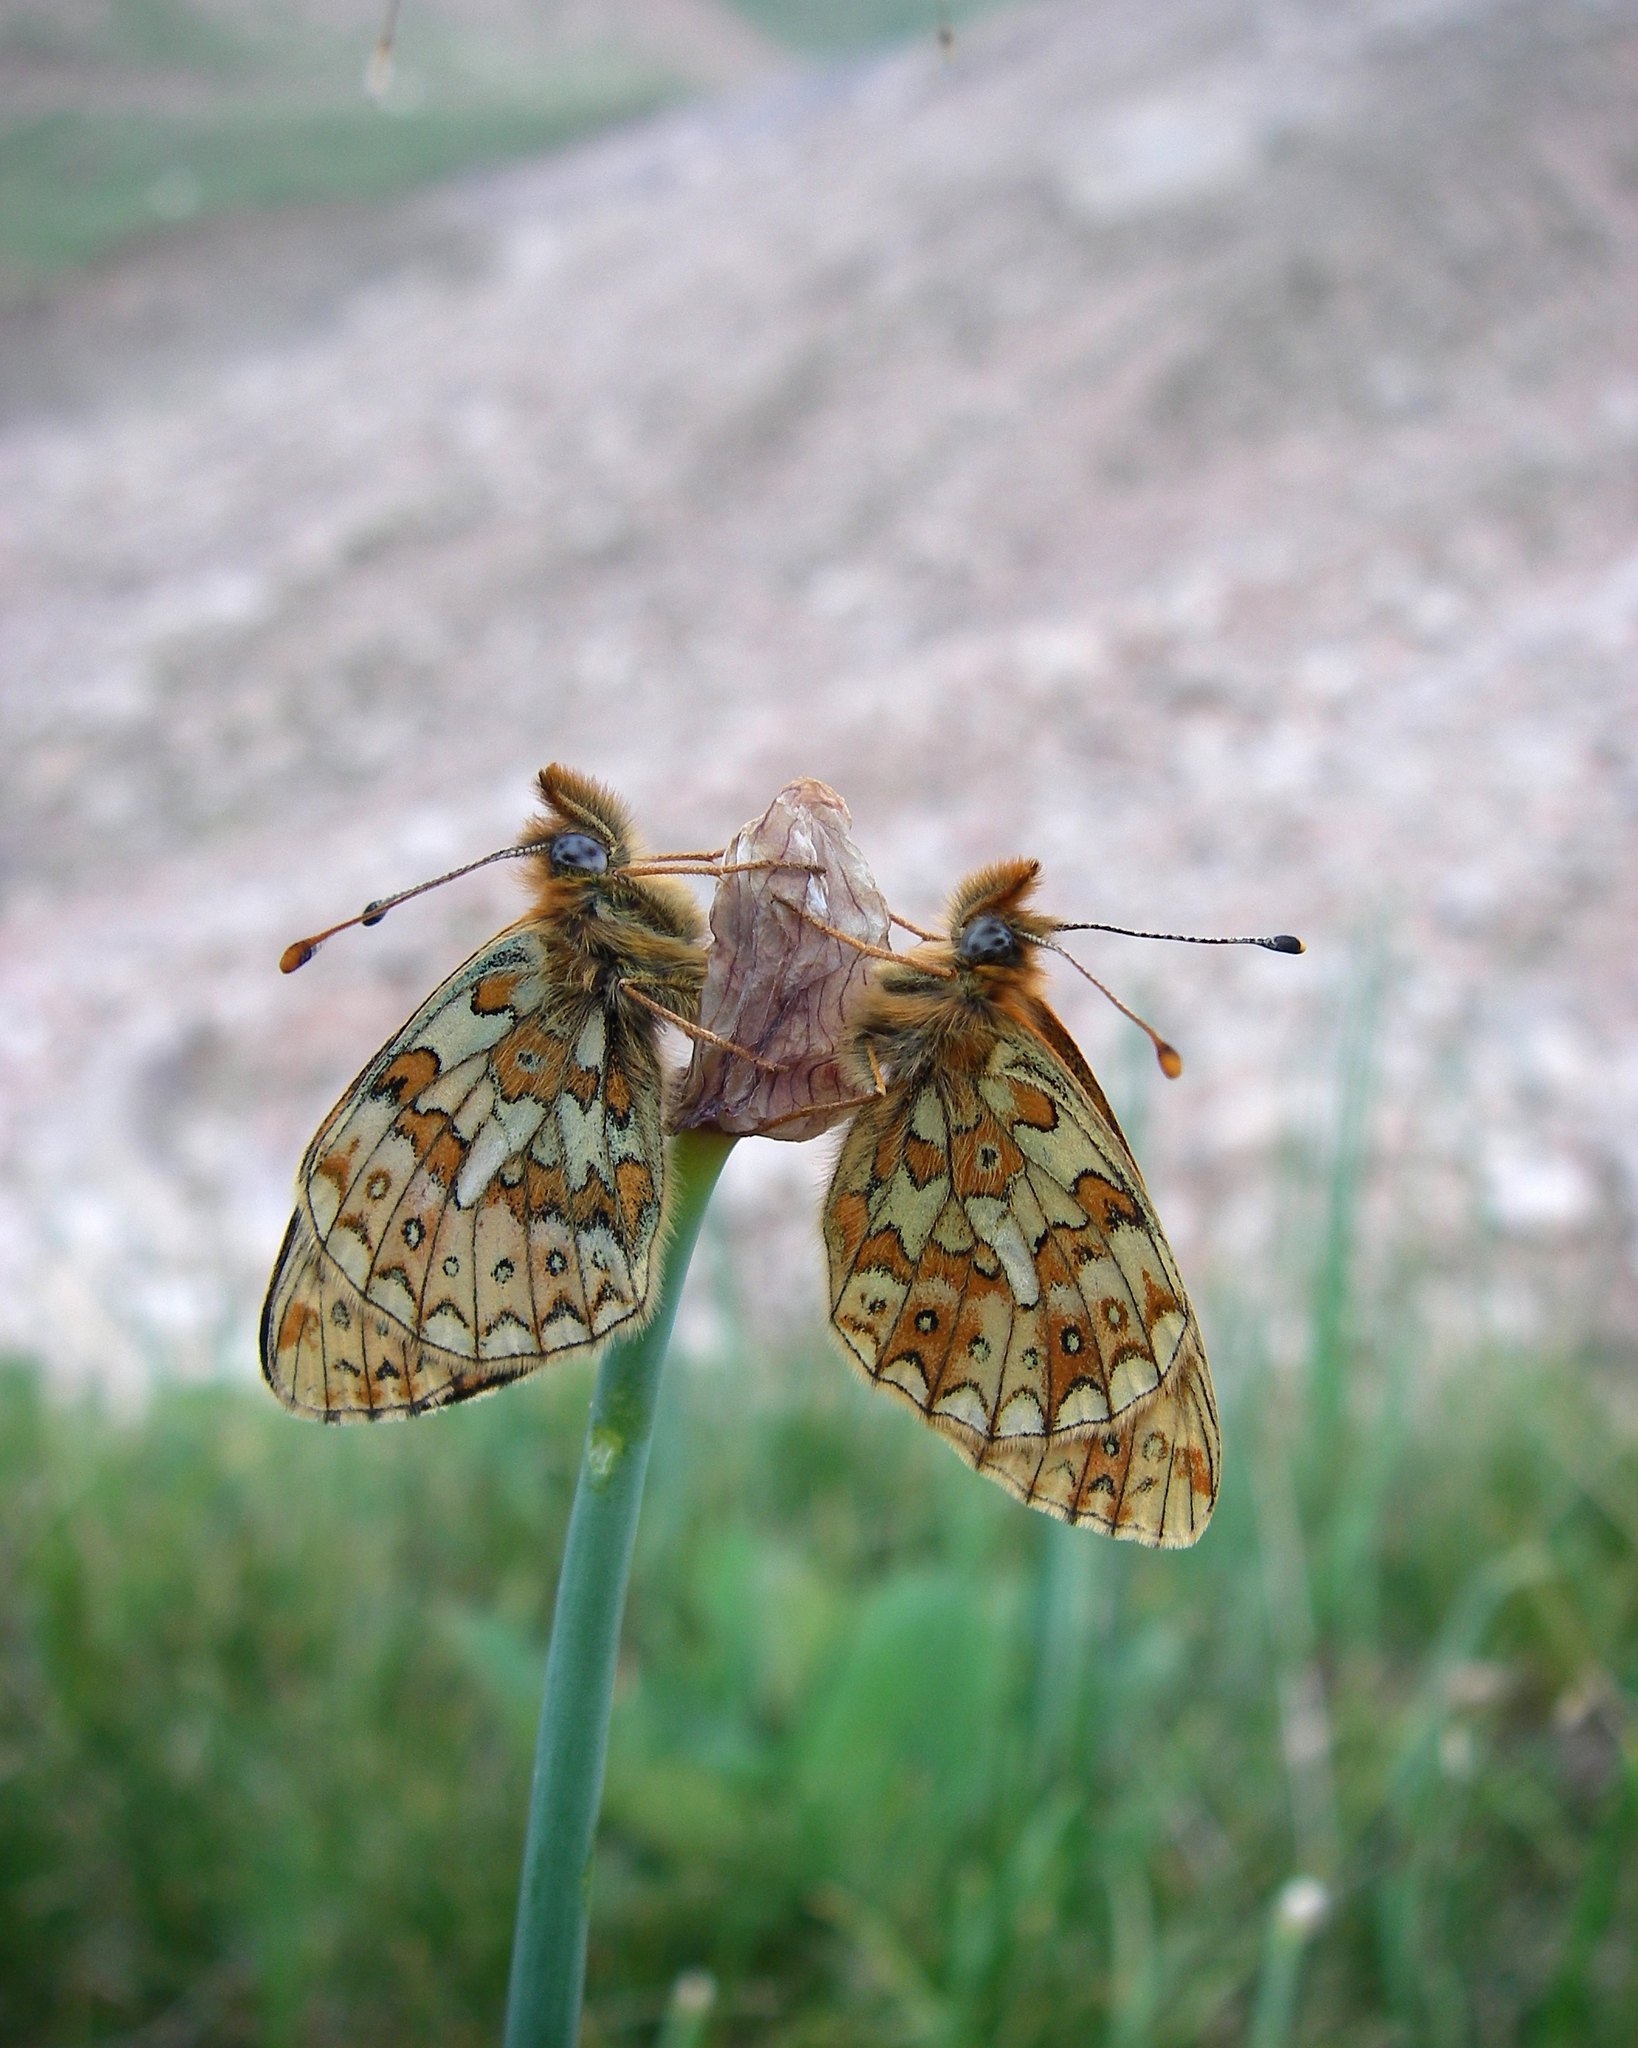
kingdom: Plantae
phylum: Tracheophyta
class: Liliopsida
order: Asparagales
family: Amaryllidaceae
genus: Allium
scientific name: Allium atrosanguineum
